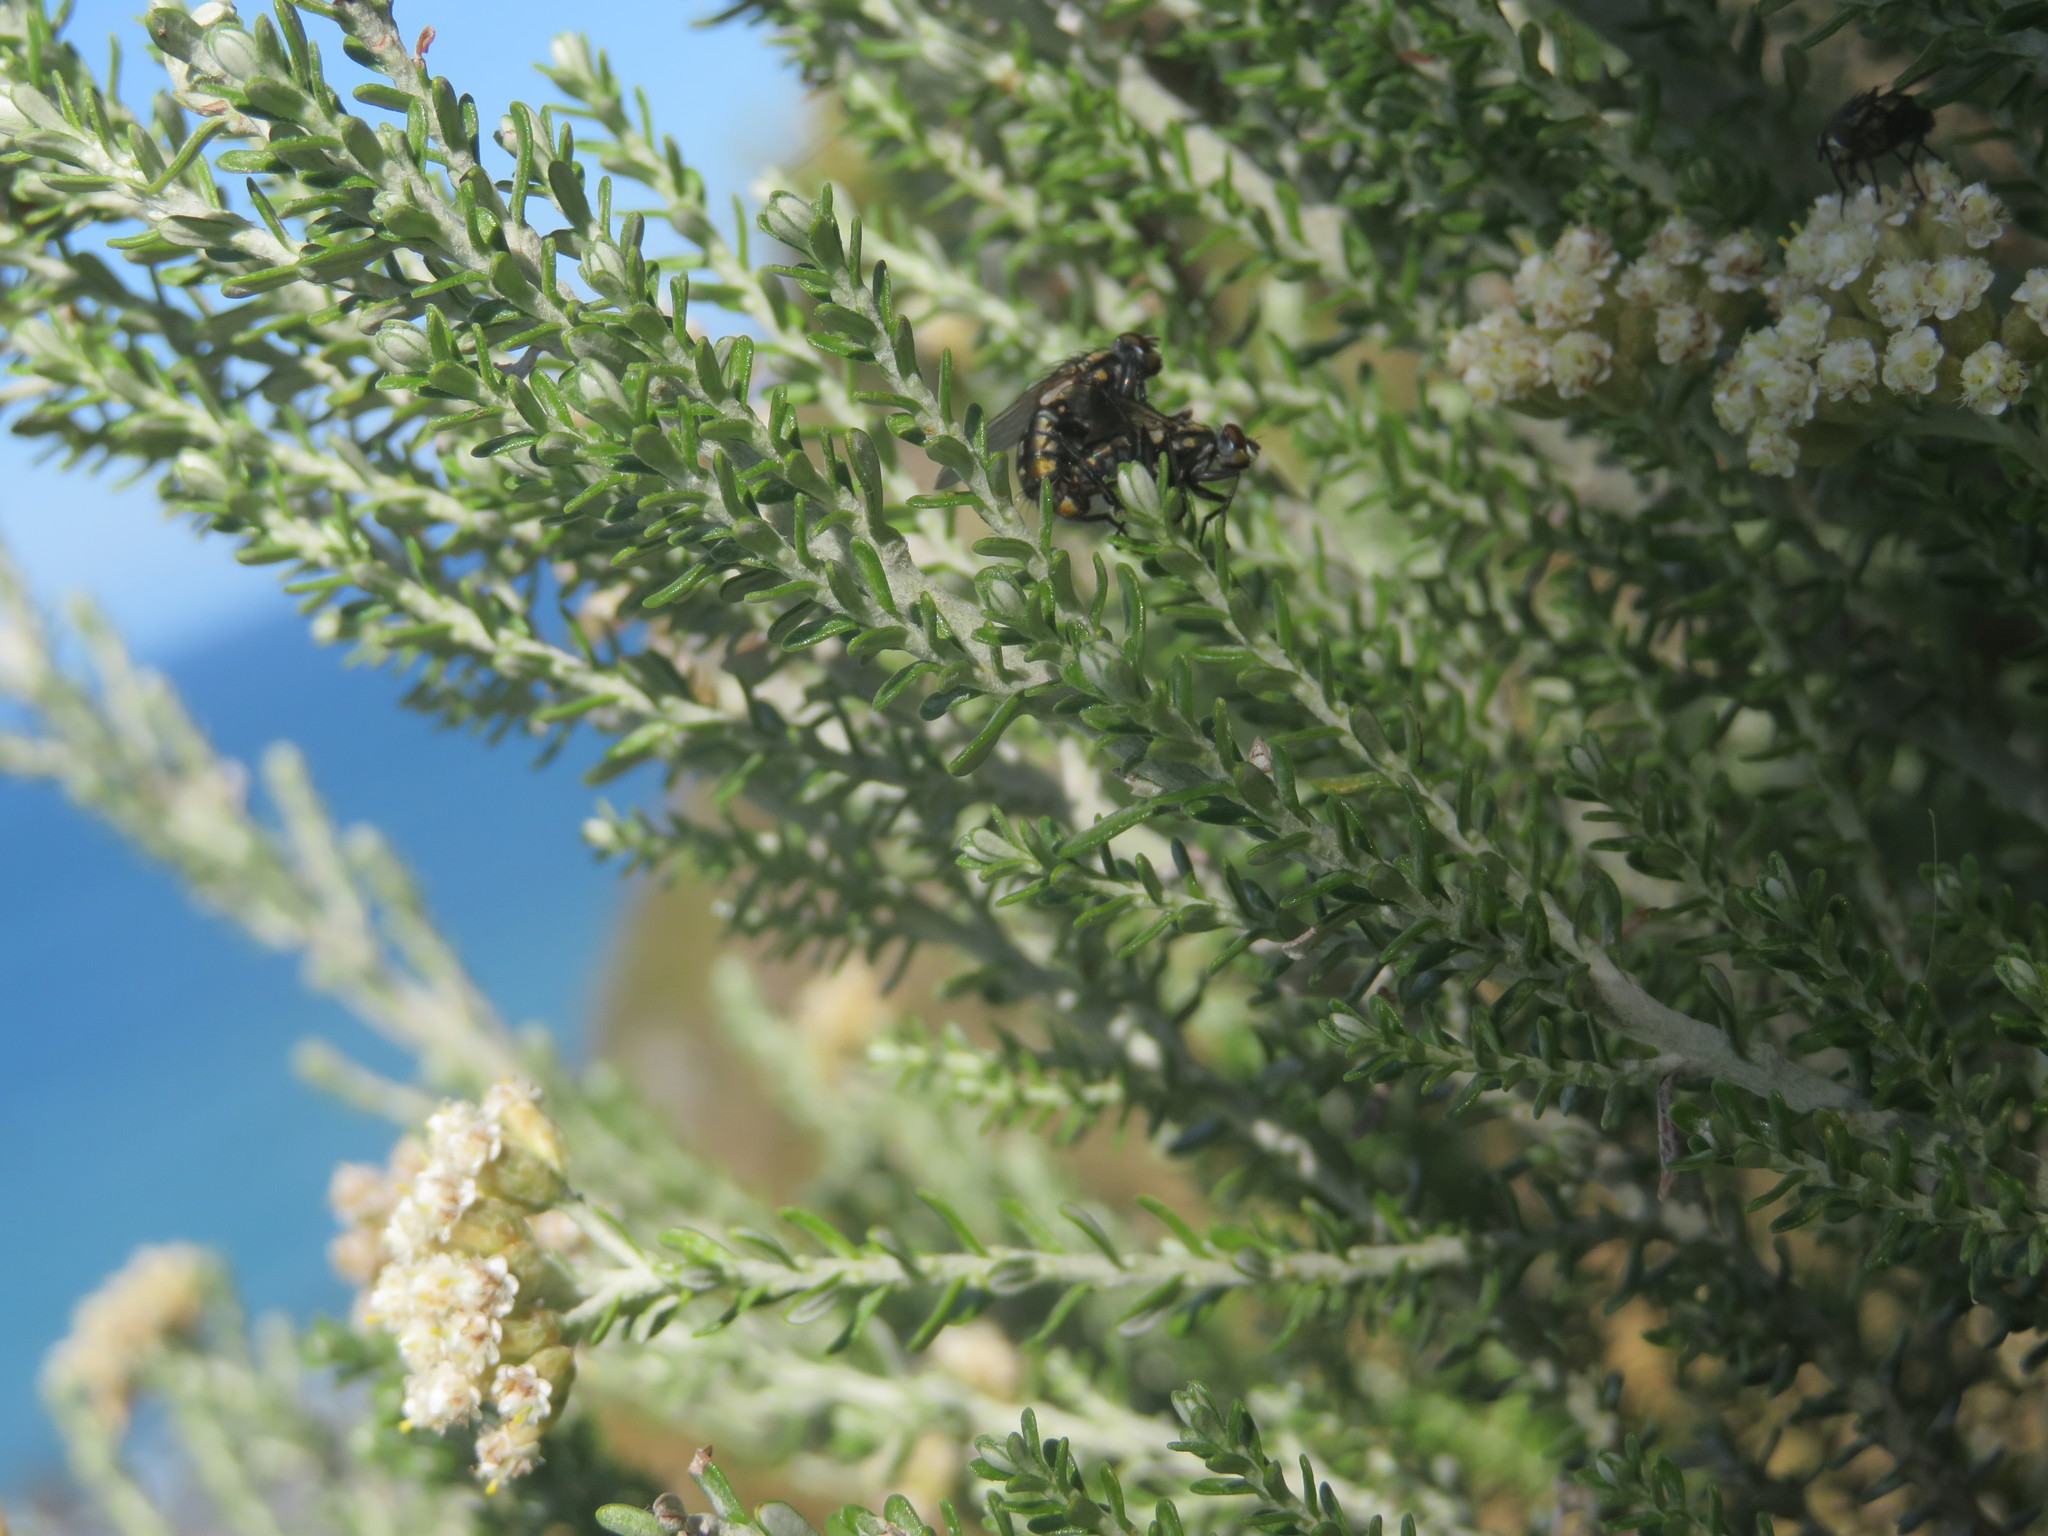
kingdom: Animalia
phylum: Arthropoda
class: Insecta
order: Diptera
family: Sarcophagidae
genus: Oxysarcodexia
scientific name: Oxysarcodexia varia
